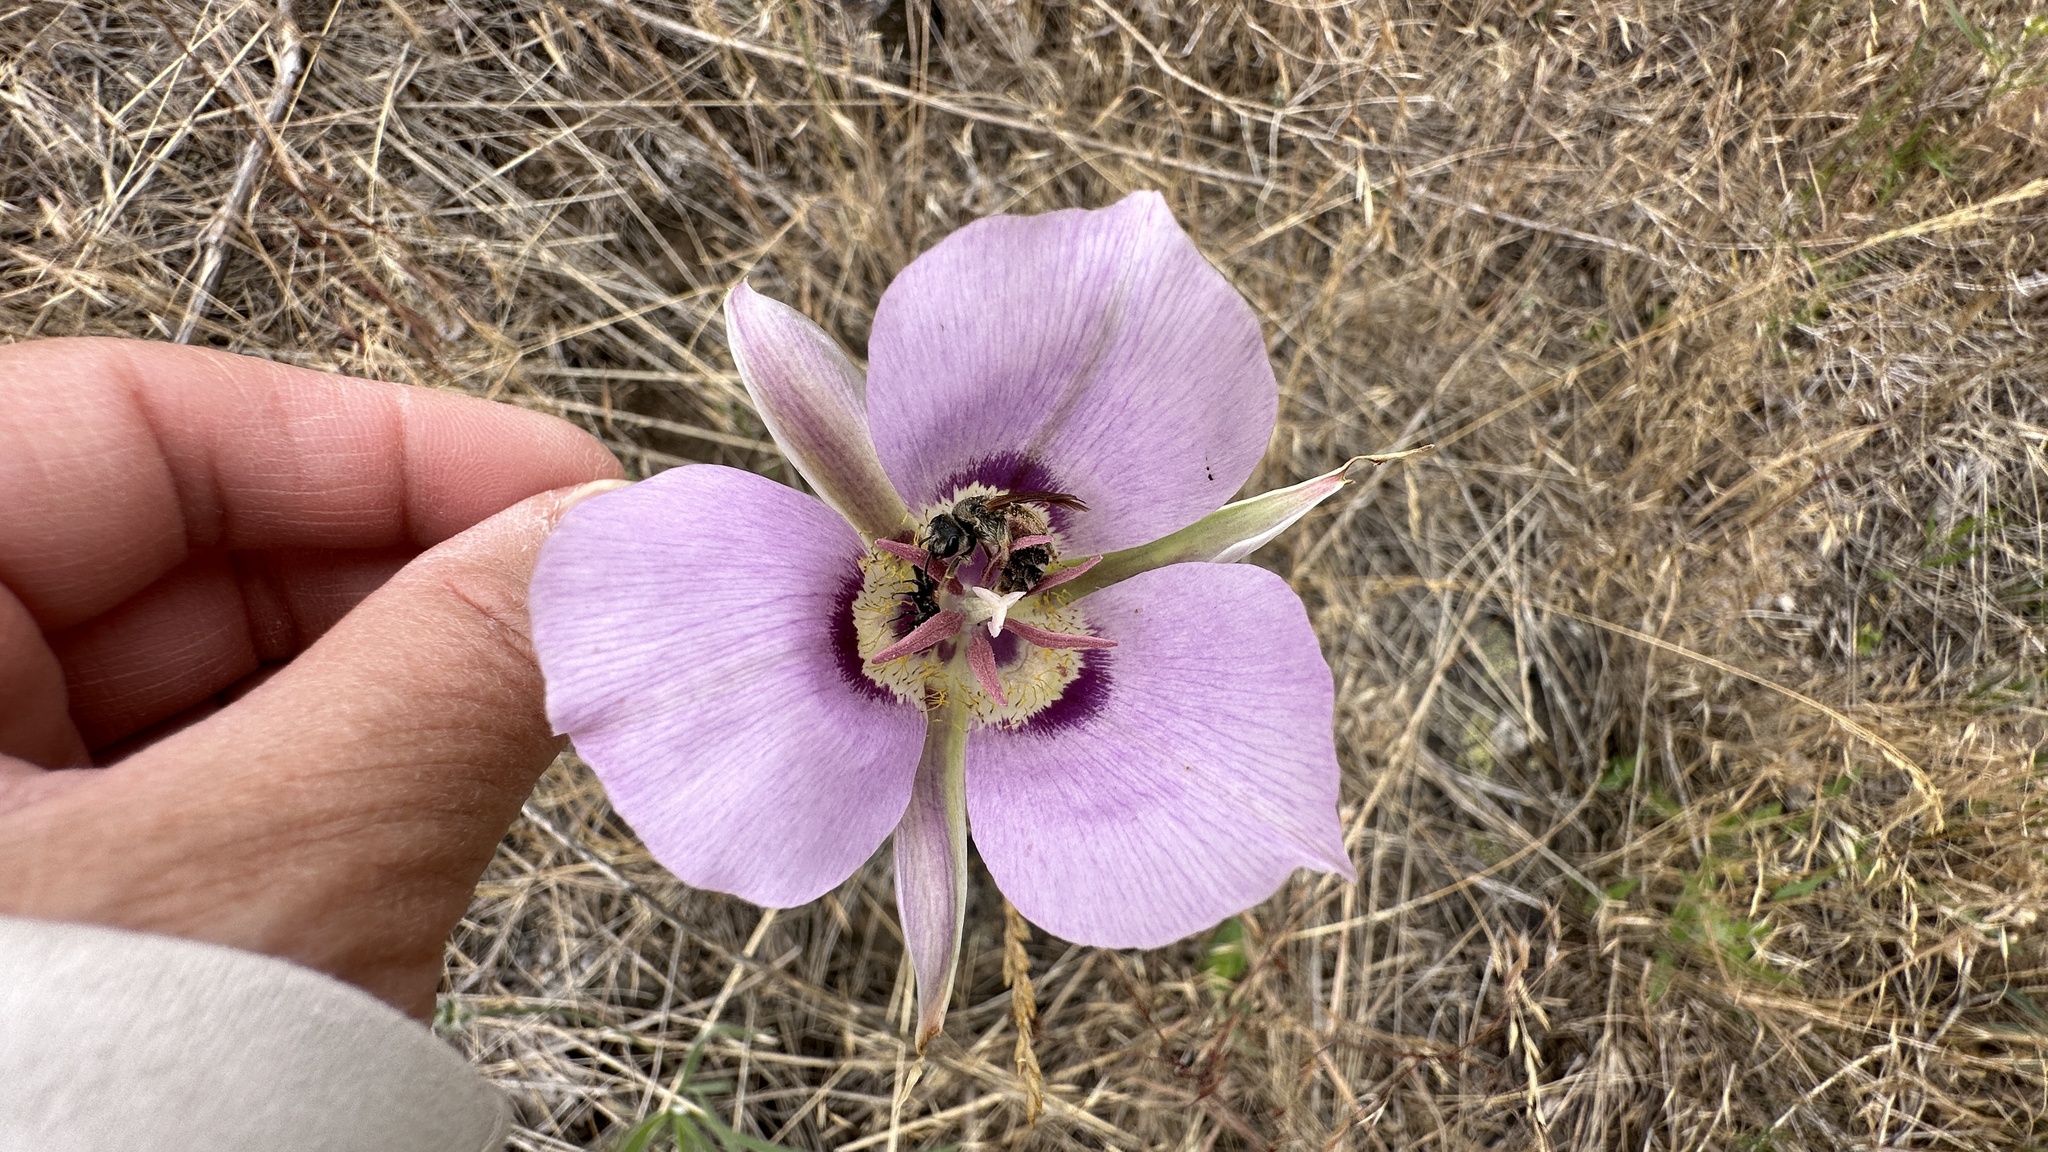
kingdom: Plantae
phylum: Tracheophyta
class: Liliopsida
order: Liliales
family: Liliaceae
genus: Calochortus
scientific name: Calochortus macrocarpus
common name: Green-band mariposa lily
